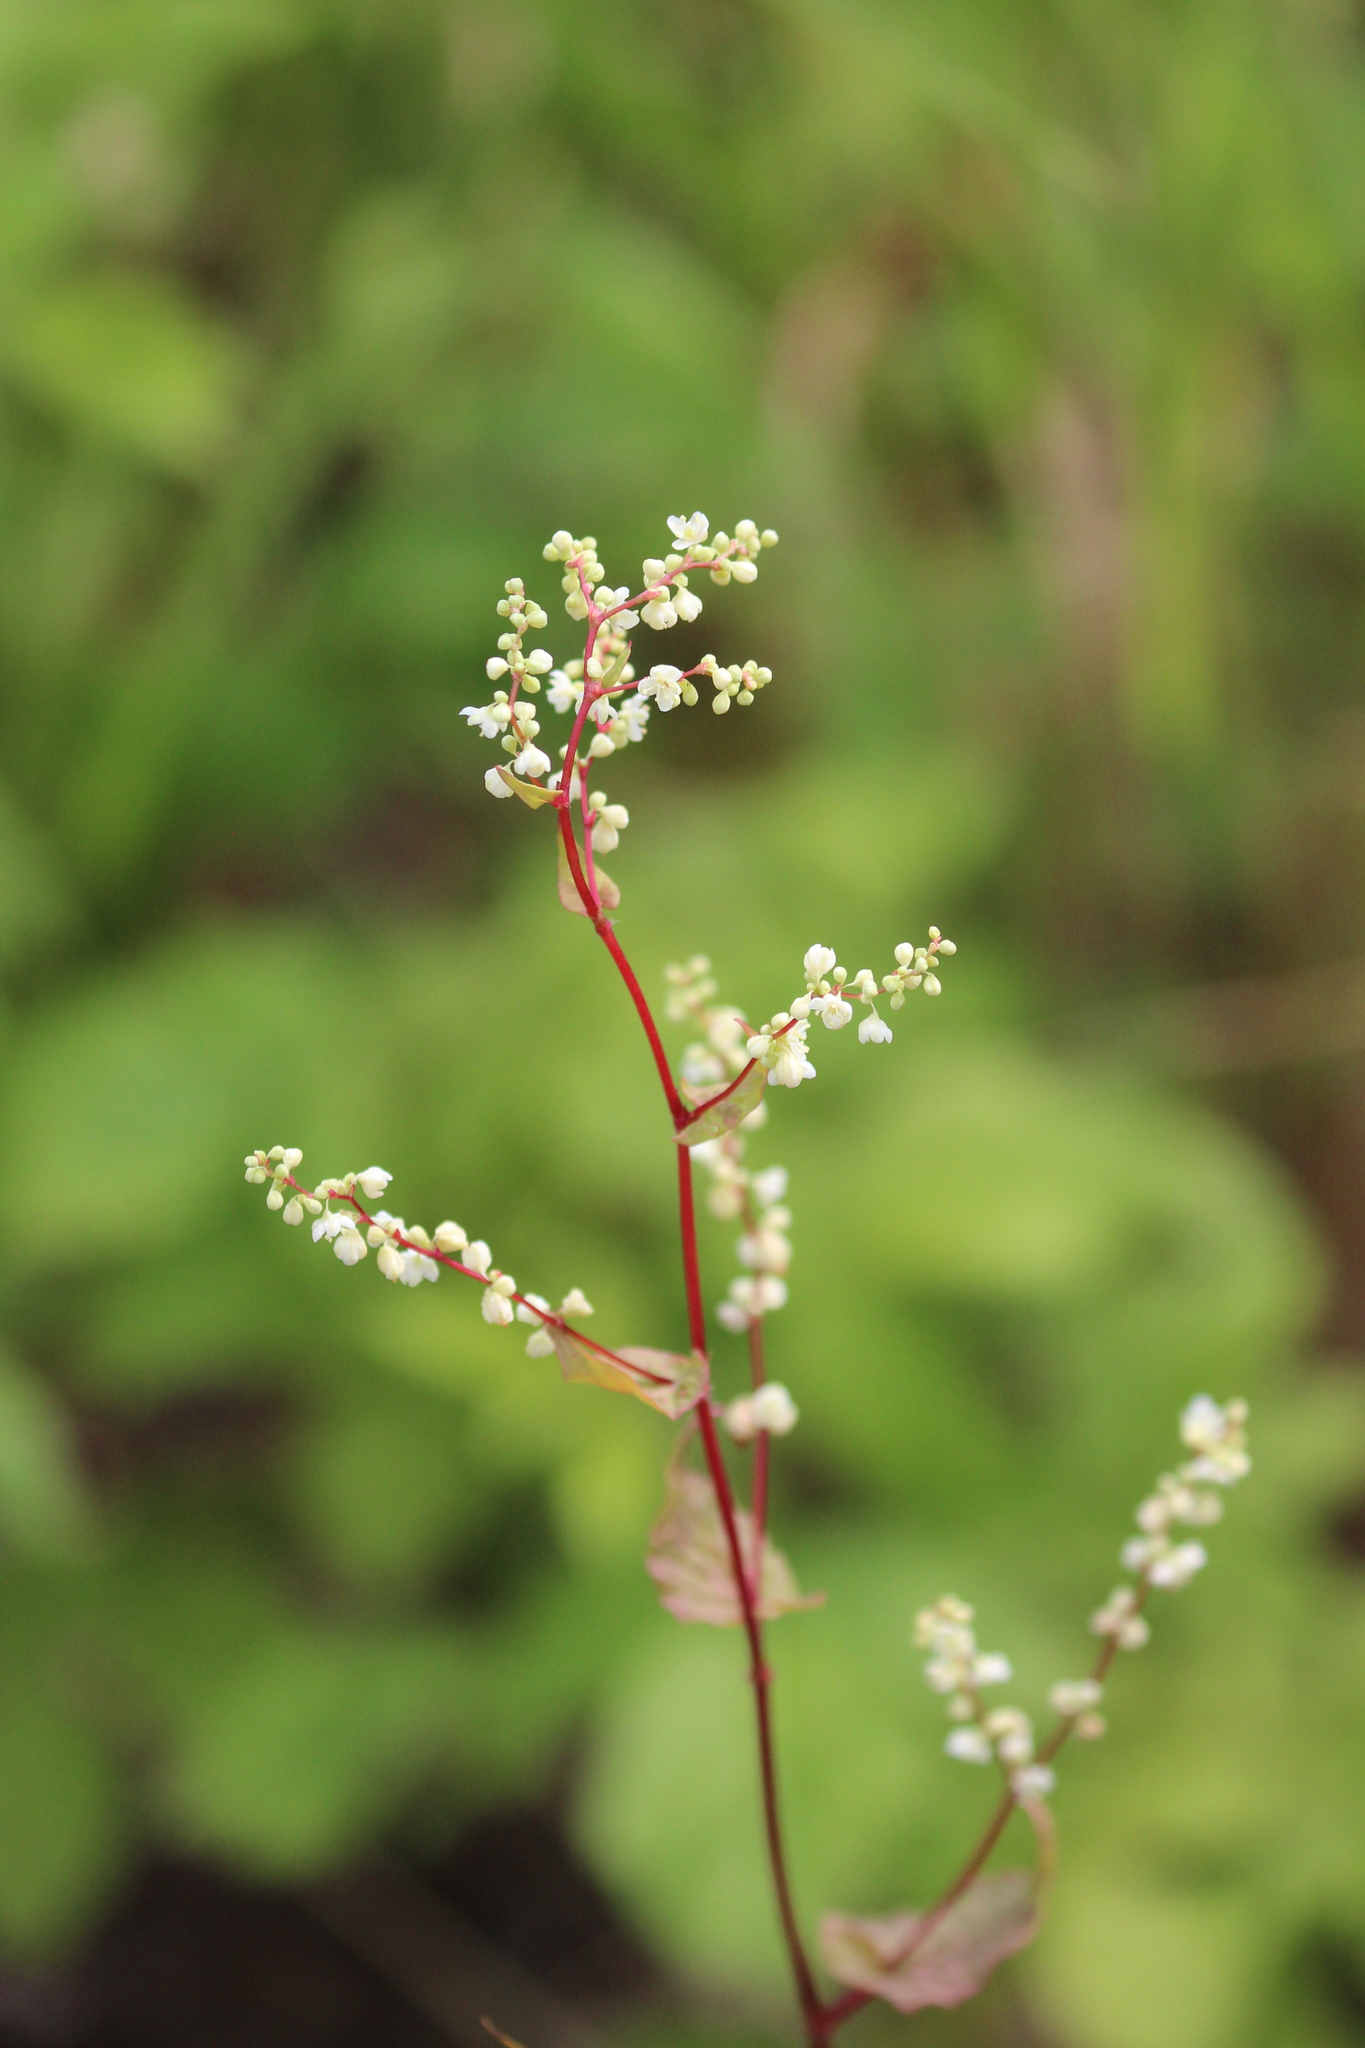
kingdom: Plantae
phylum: Tracheophyta
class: Magnoliopsida
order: Caryophyllales
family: Polygonaceae
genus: Parogonum
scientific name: Parogonum ciliinode
